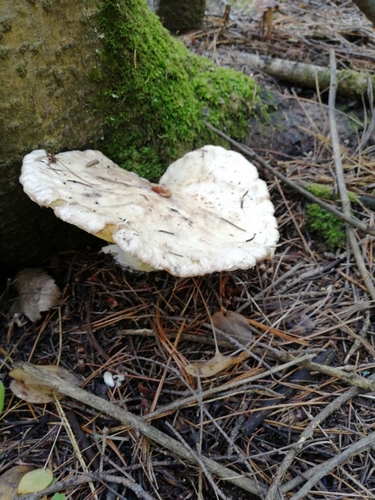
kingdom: Fungi
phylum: Basidiomycota
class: Agaricomycetes
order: Boletales
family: Suillaceae
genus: Suillus
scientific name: Suillus placidus
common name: Slippery white bolete
